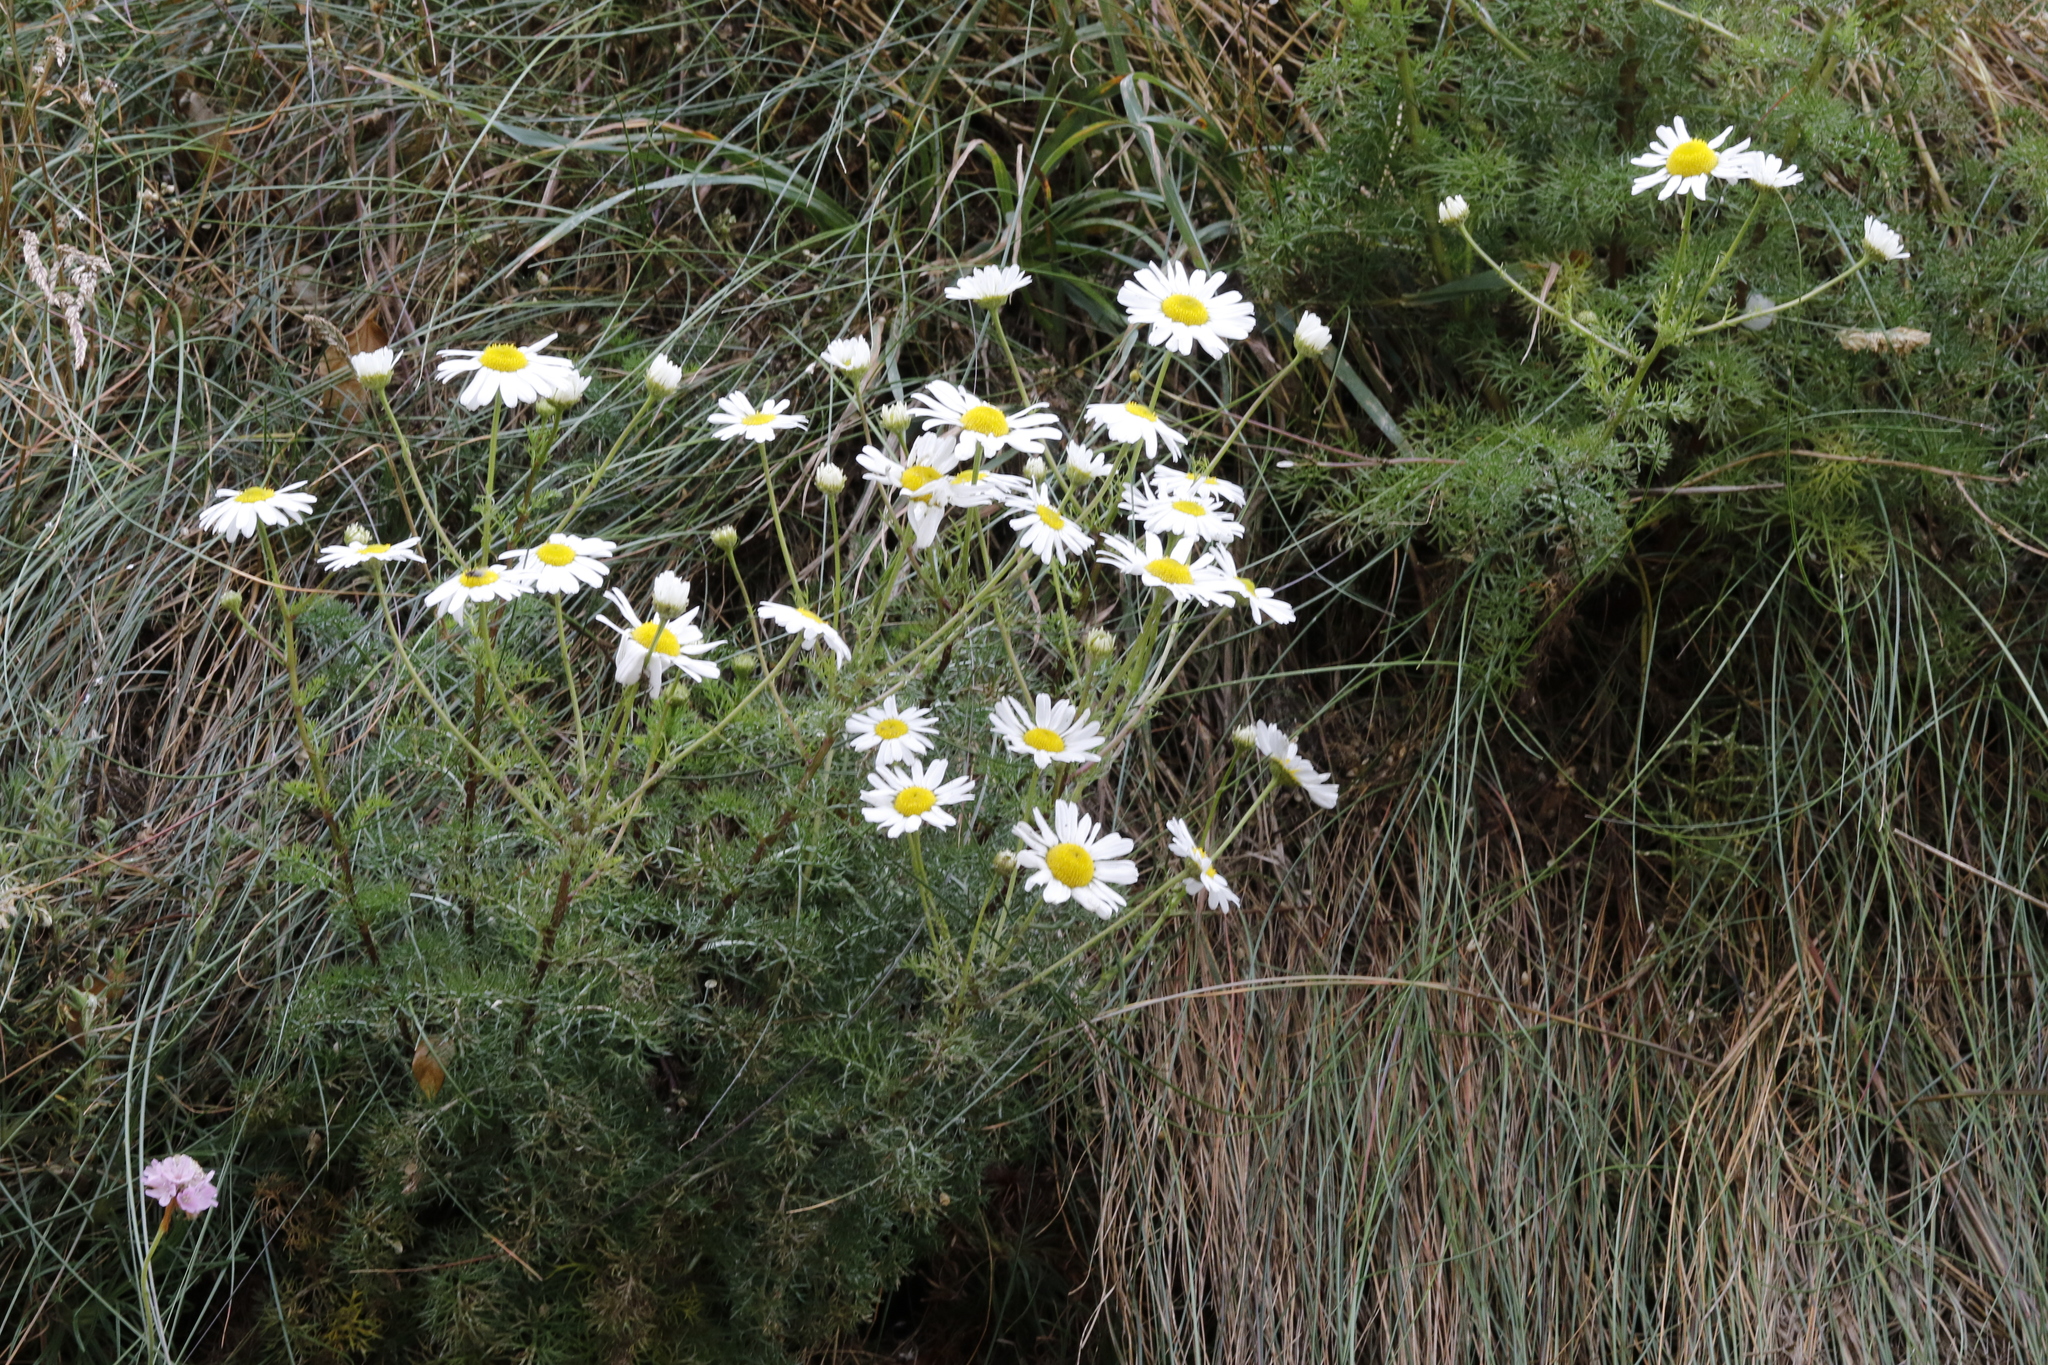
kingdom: Plantae
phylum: Tracheophyta
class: Magnoliopsida
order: Asterales
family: Asteraceae
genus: Tripleurospermum
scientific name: Tripleurospermum maritimum
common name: Sea mayweed
